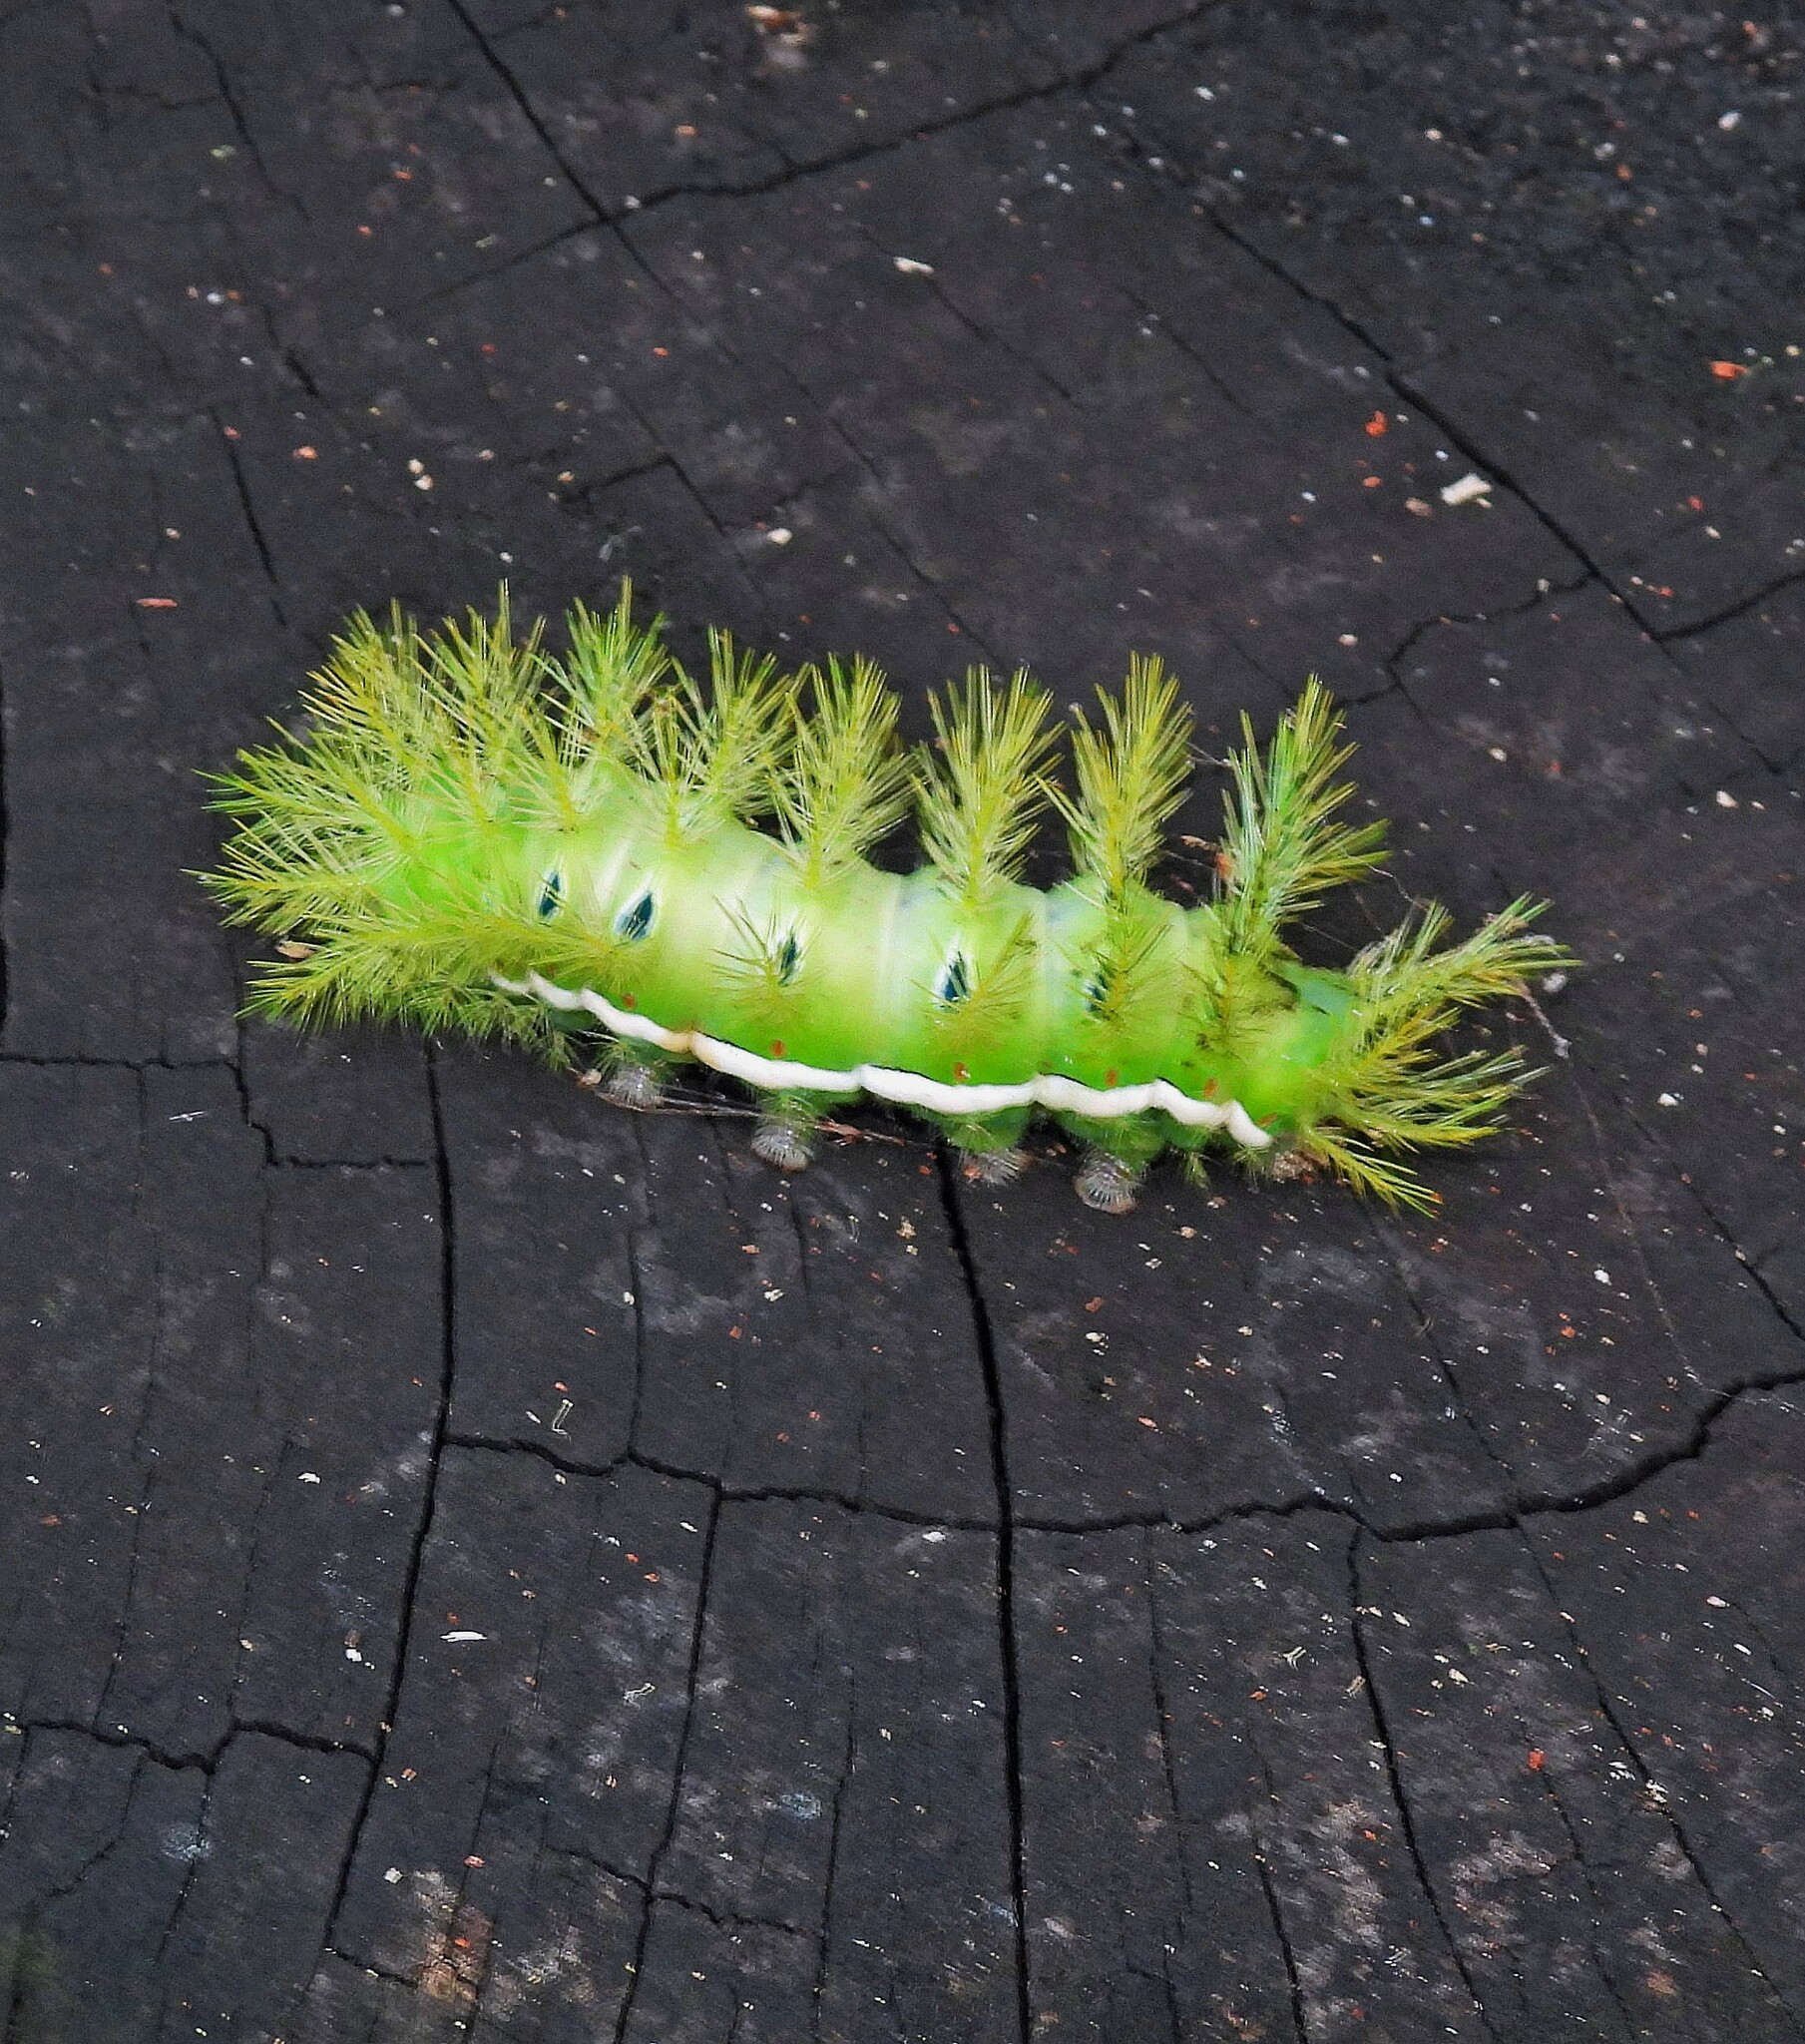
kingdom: Animalia
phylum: Arthropoda
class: Insecta
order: Lepidoptera
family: Saturniidae
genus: Automeris
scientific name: Automeris illustris
